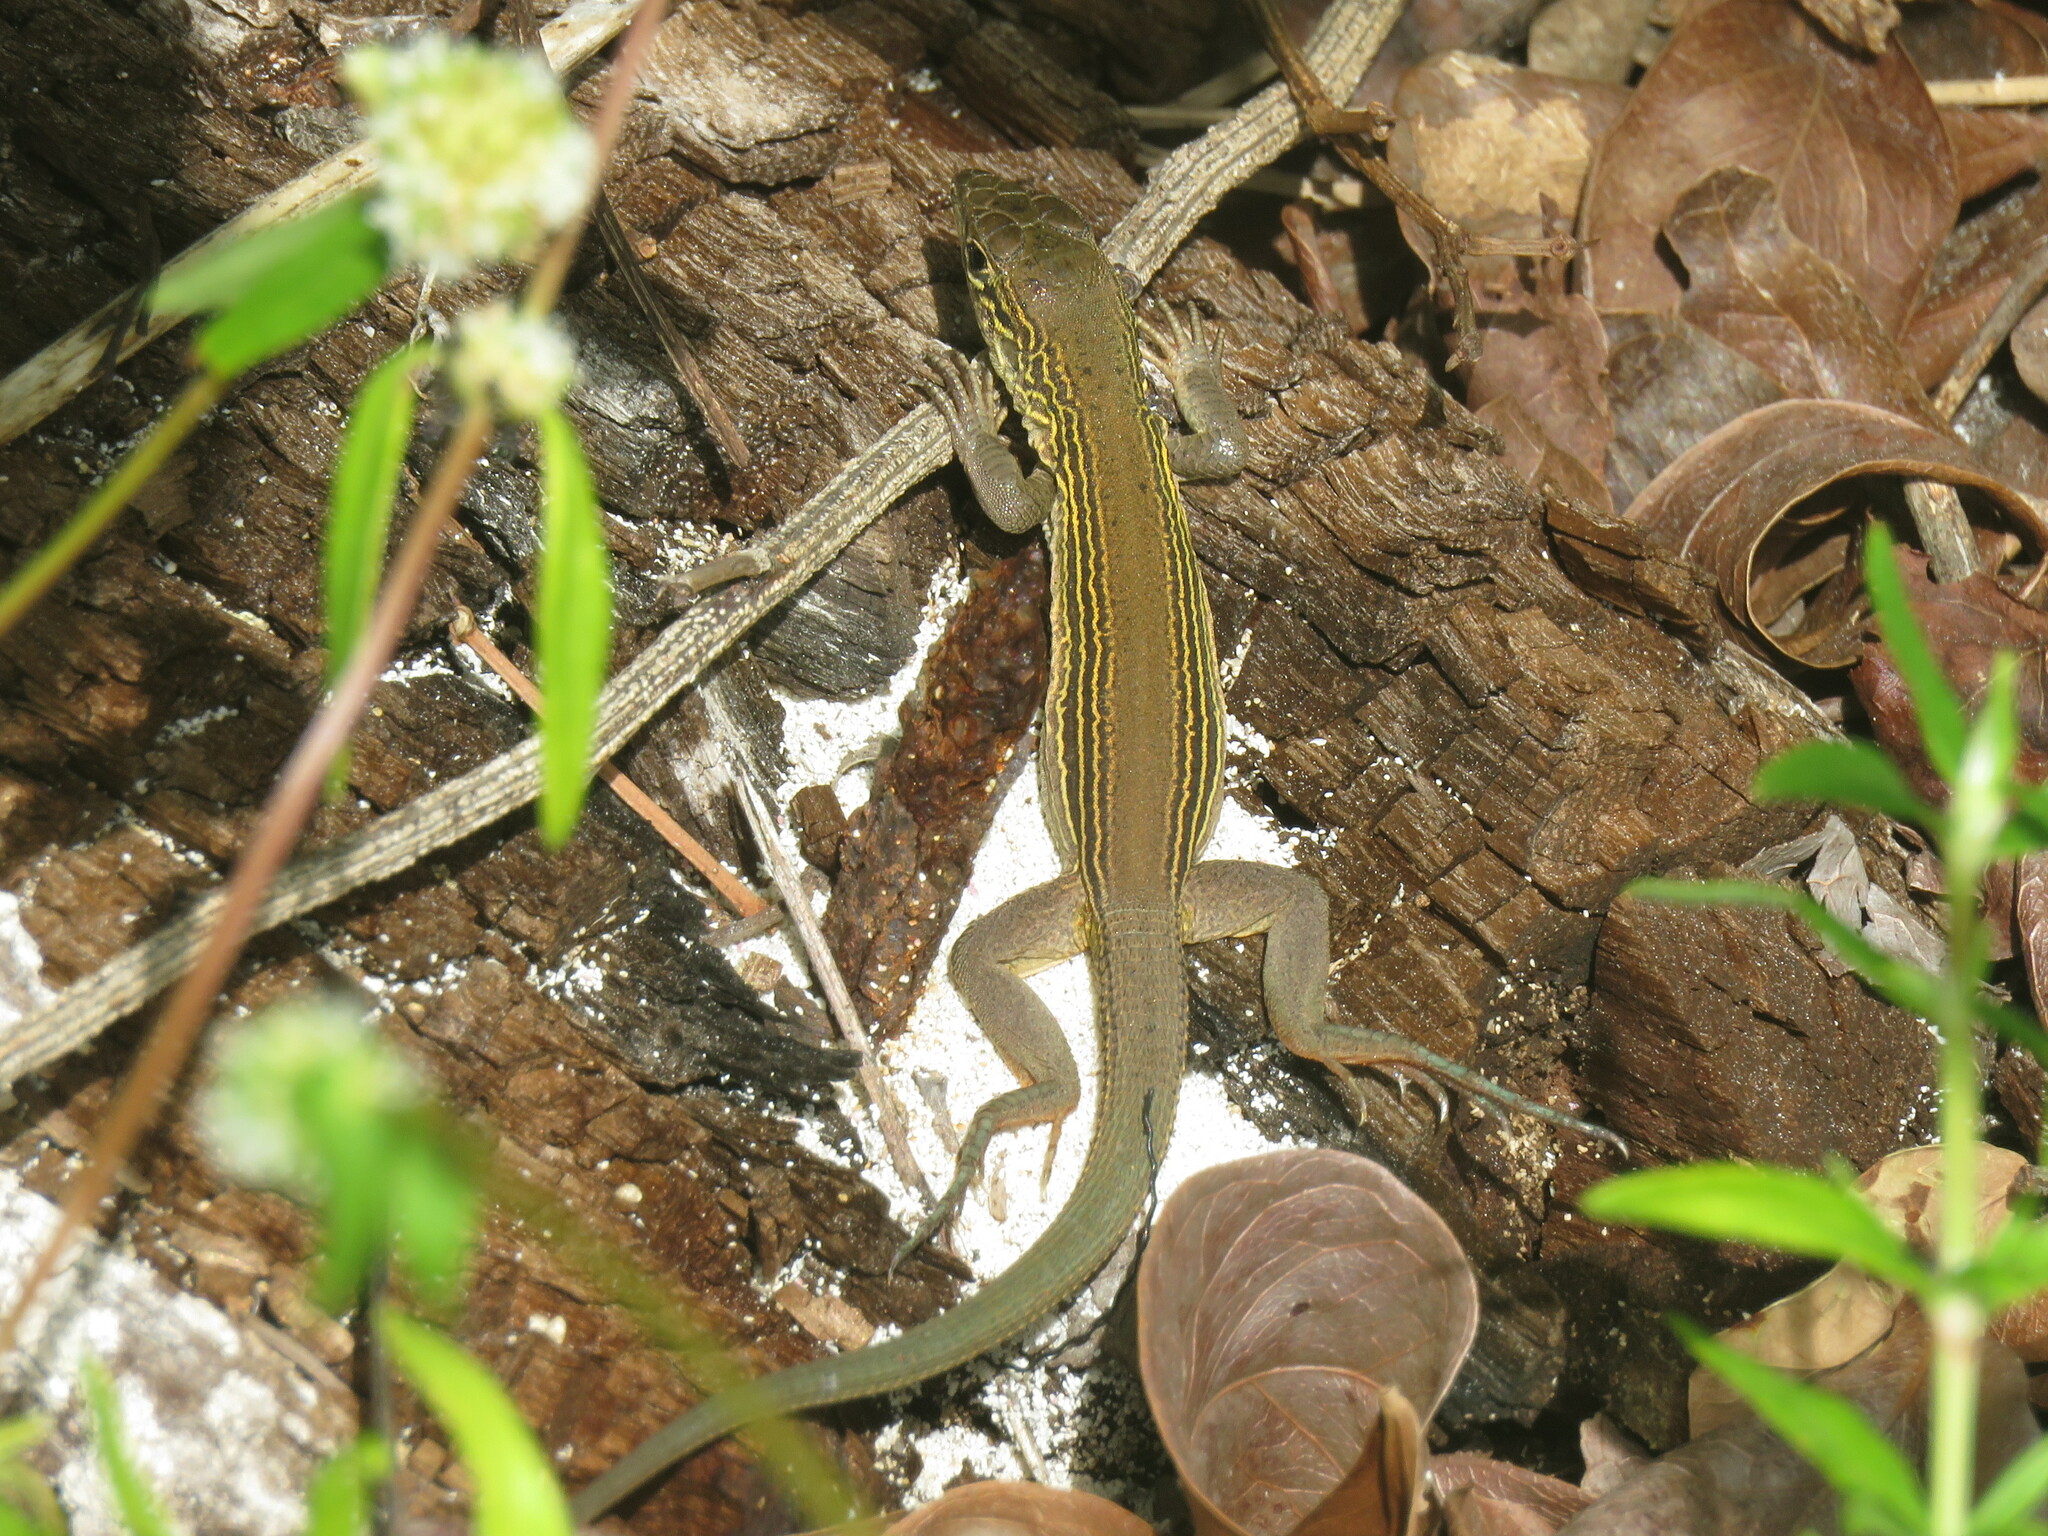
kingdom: Animalia
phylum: Chordata
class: Squamata
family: Teiidae
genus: Aspidoscelis
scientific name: Aspidoscelis cozumela
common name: Cozumel racerunner
